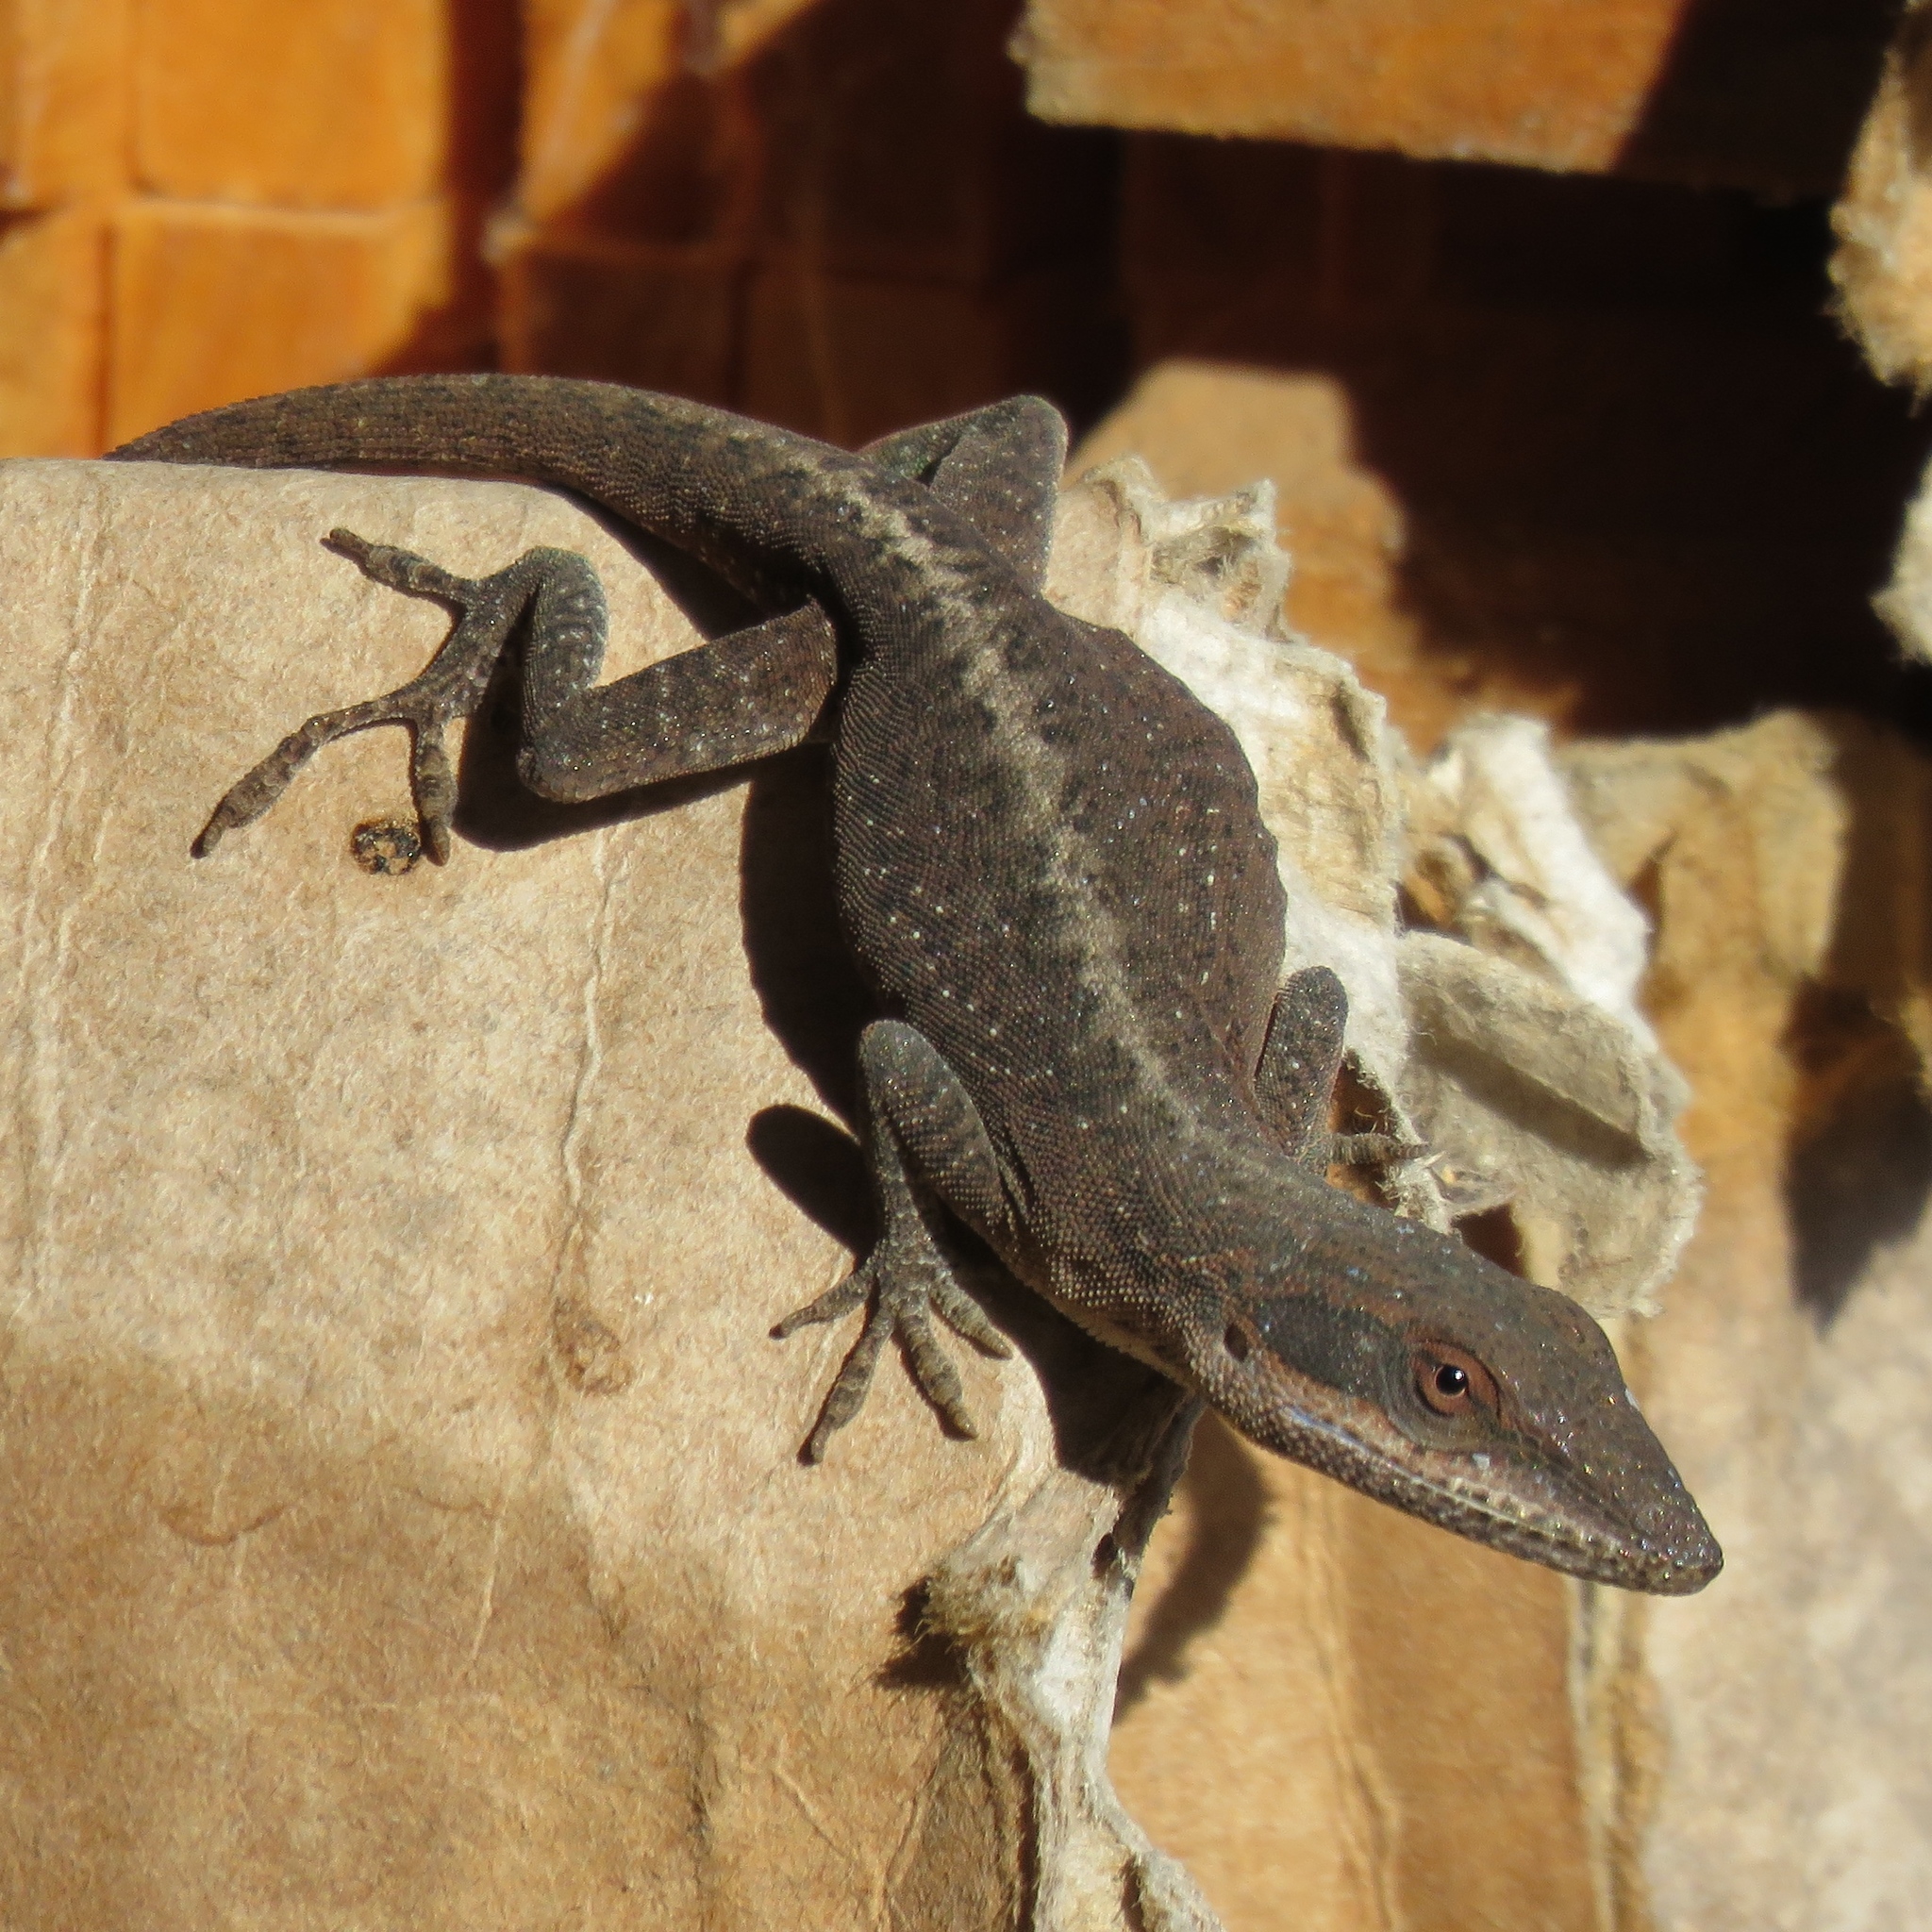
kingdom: Animalia
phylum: Chordata
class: Squamata
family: Dactyloidae
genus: Anolis
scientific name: Anolis carolinensis
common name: Green anole
